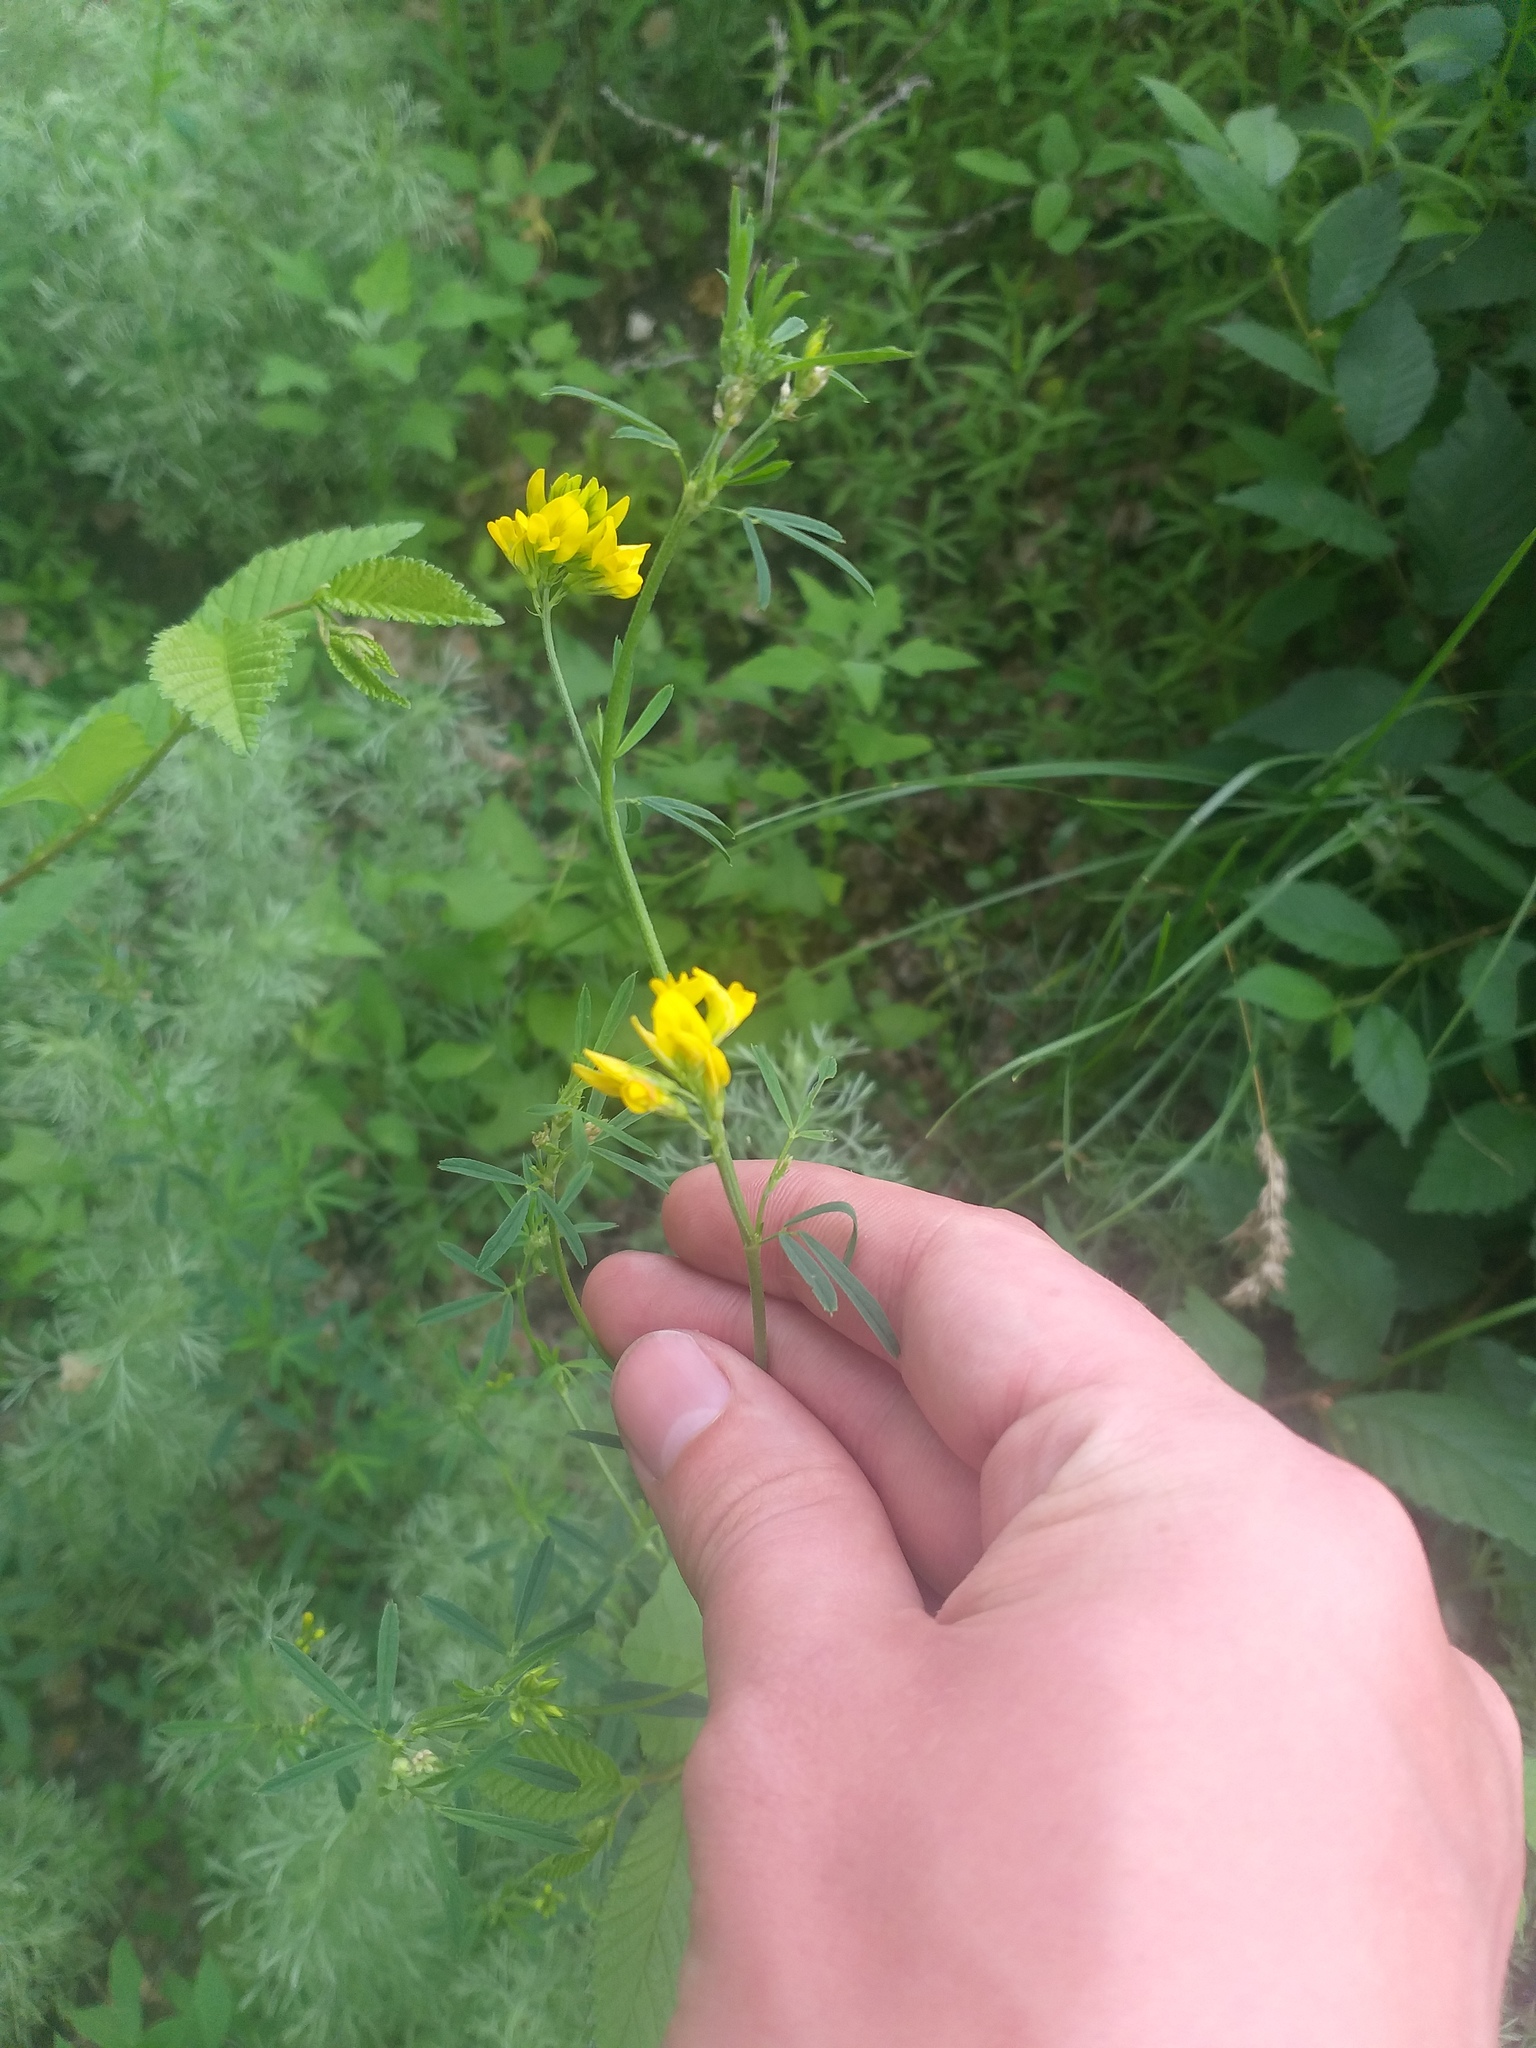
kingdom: Plantae
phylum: Tracheophyta
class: Magnoliopsida
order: Fabales
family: Fabaceae
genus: Medicago
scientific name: Medicago falcata
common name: Sickle medick
